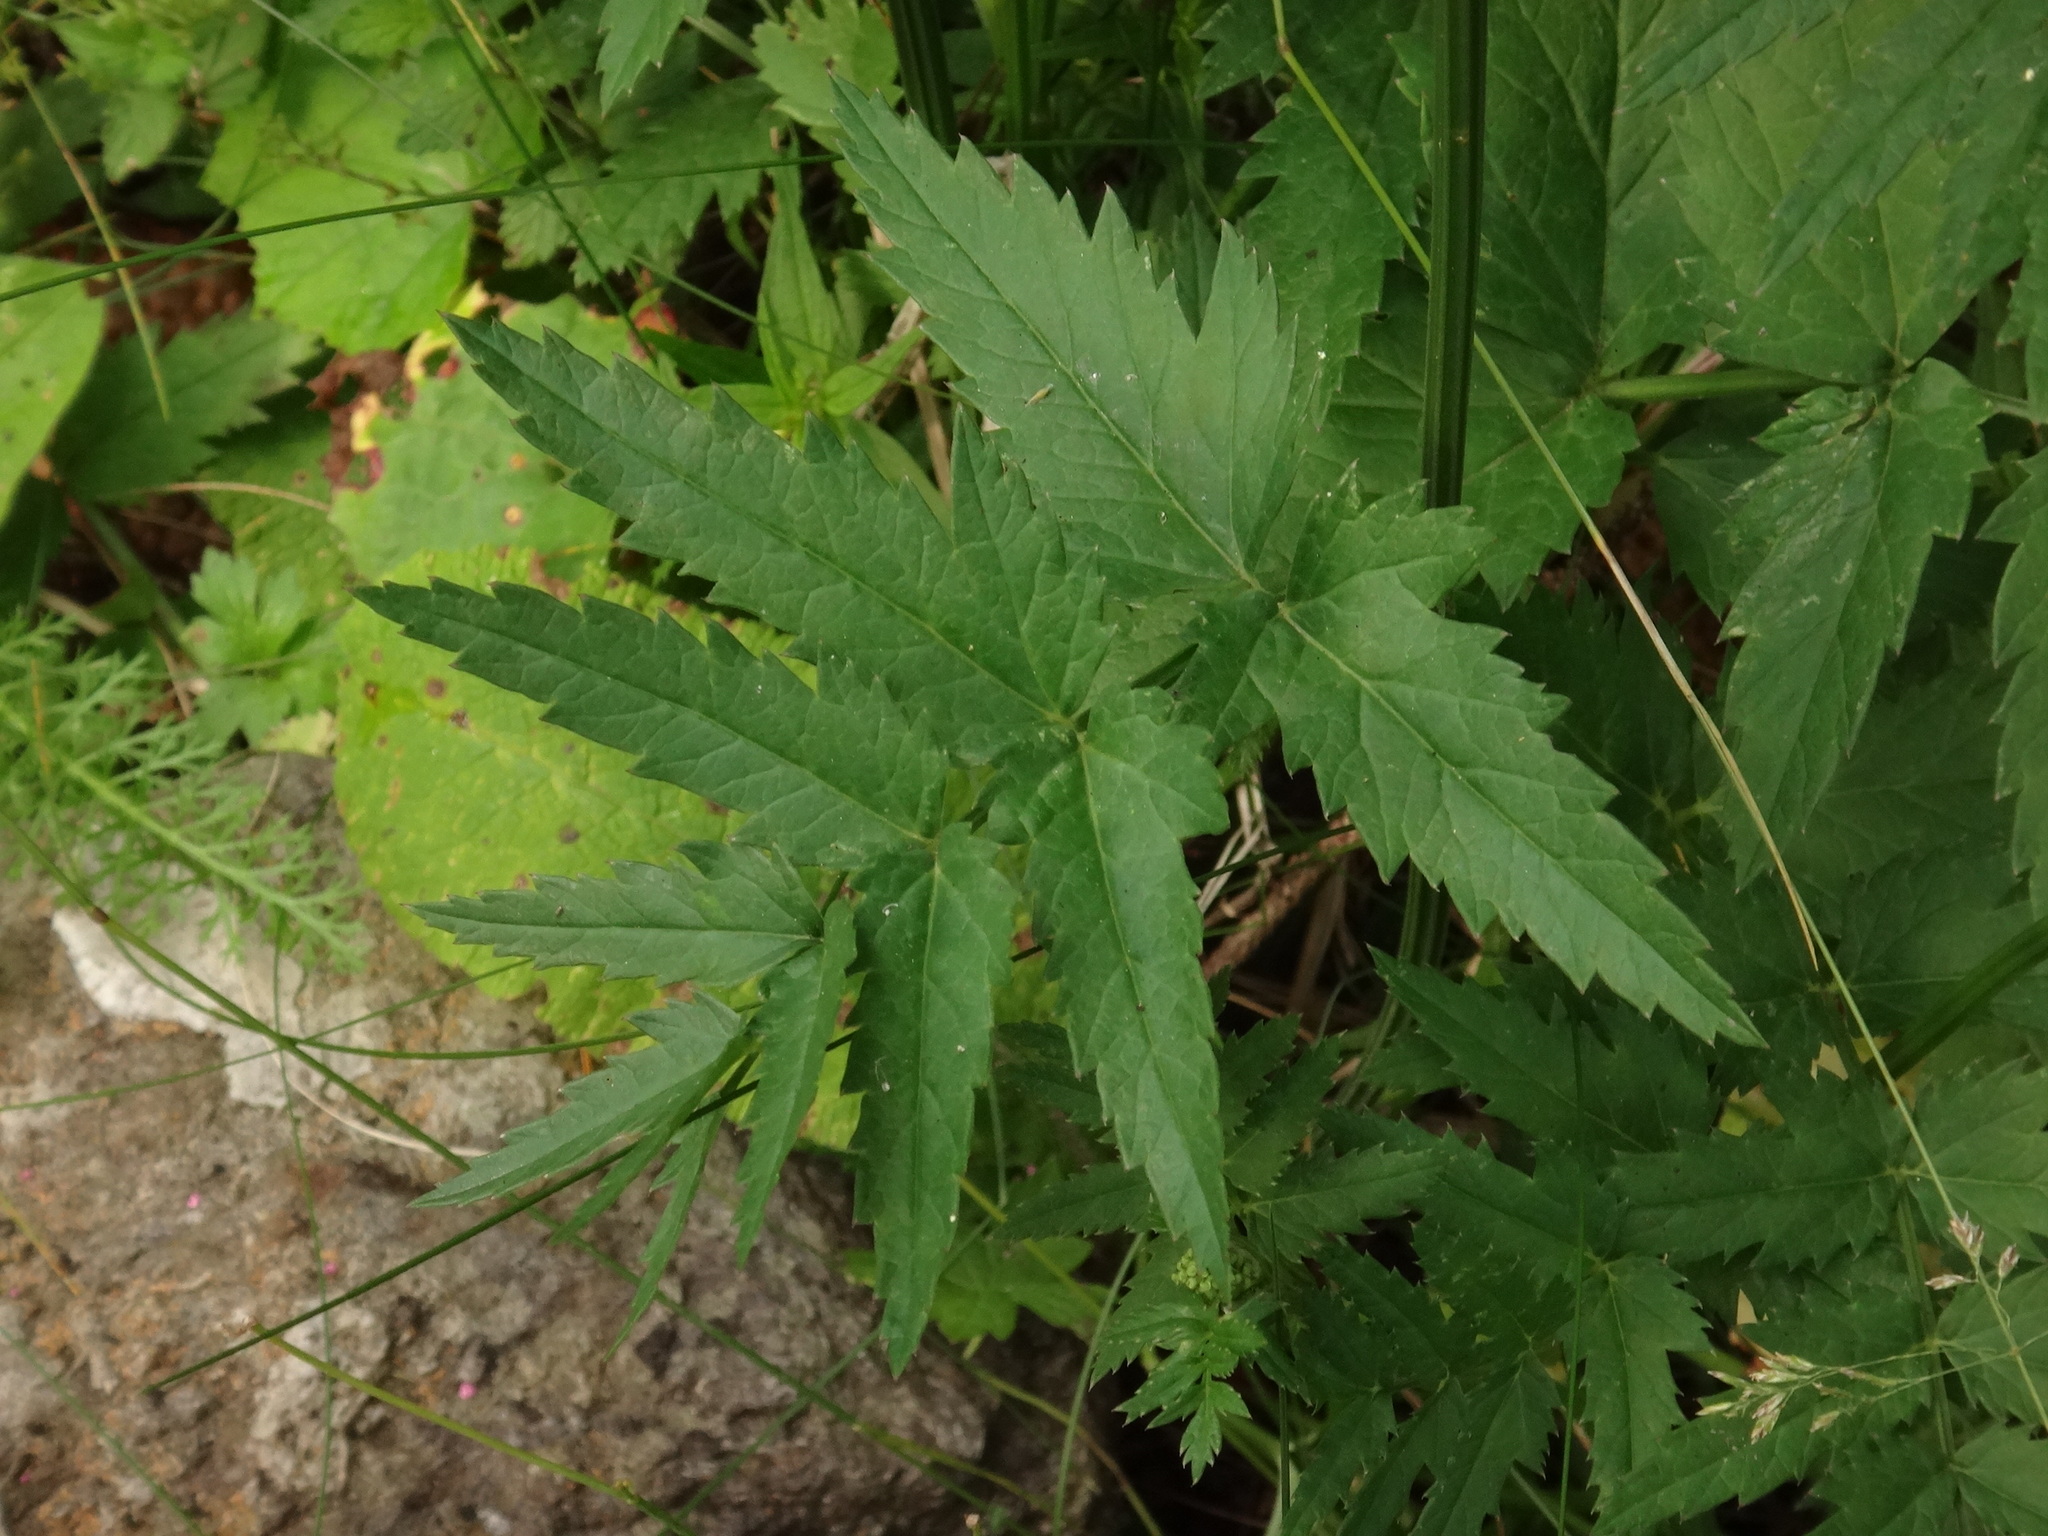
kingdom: Plantae
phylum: Tracheophyta
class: Magnoliopsida
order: Apiales
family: Apiaceae
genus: Pimpinella
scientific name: Pimpinella major
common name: Greater burnet-saxifrage
